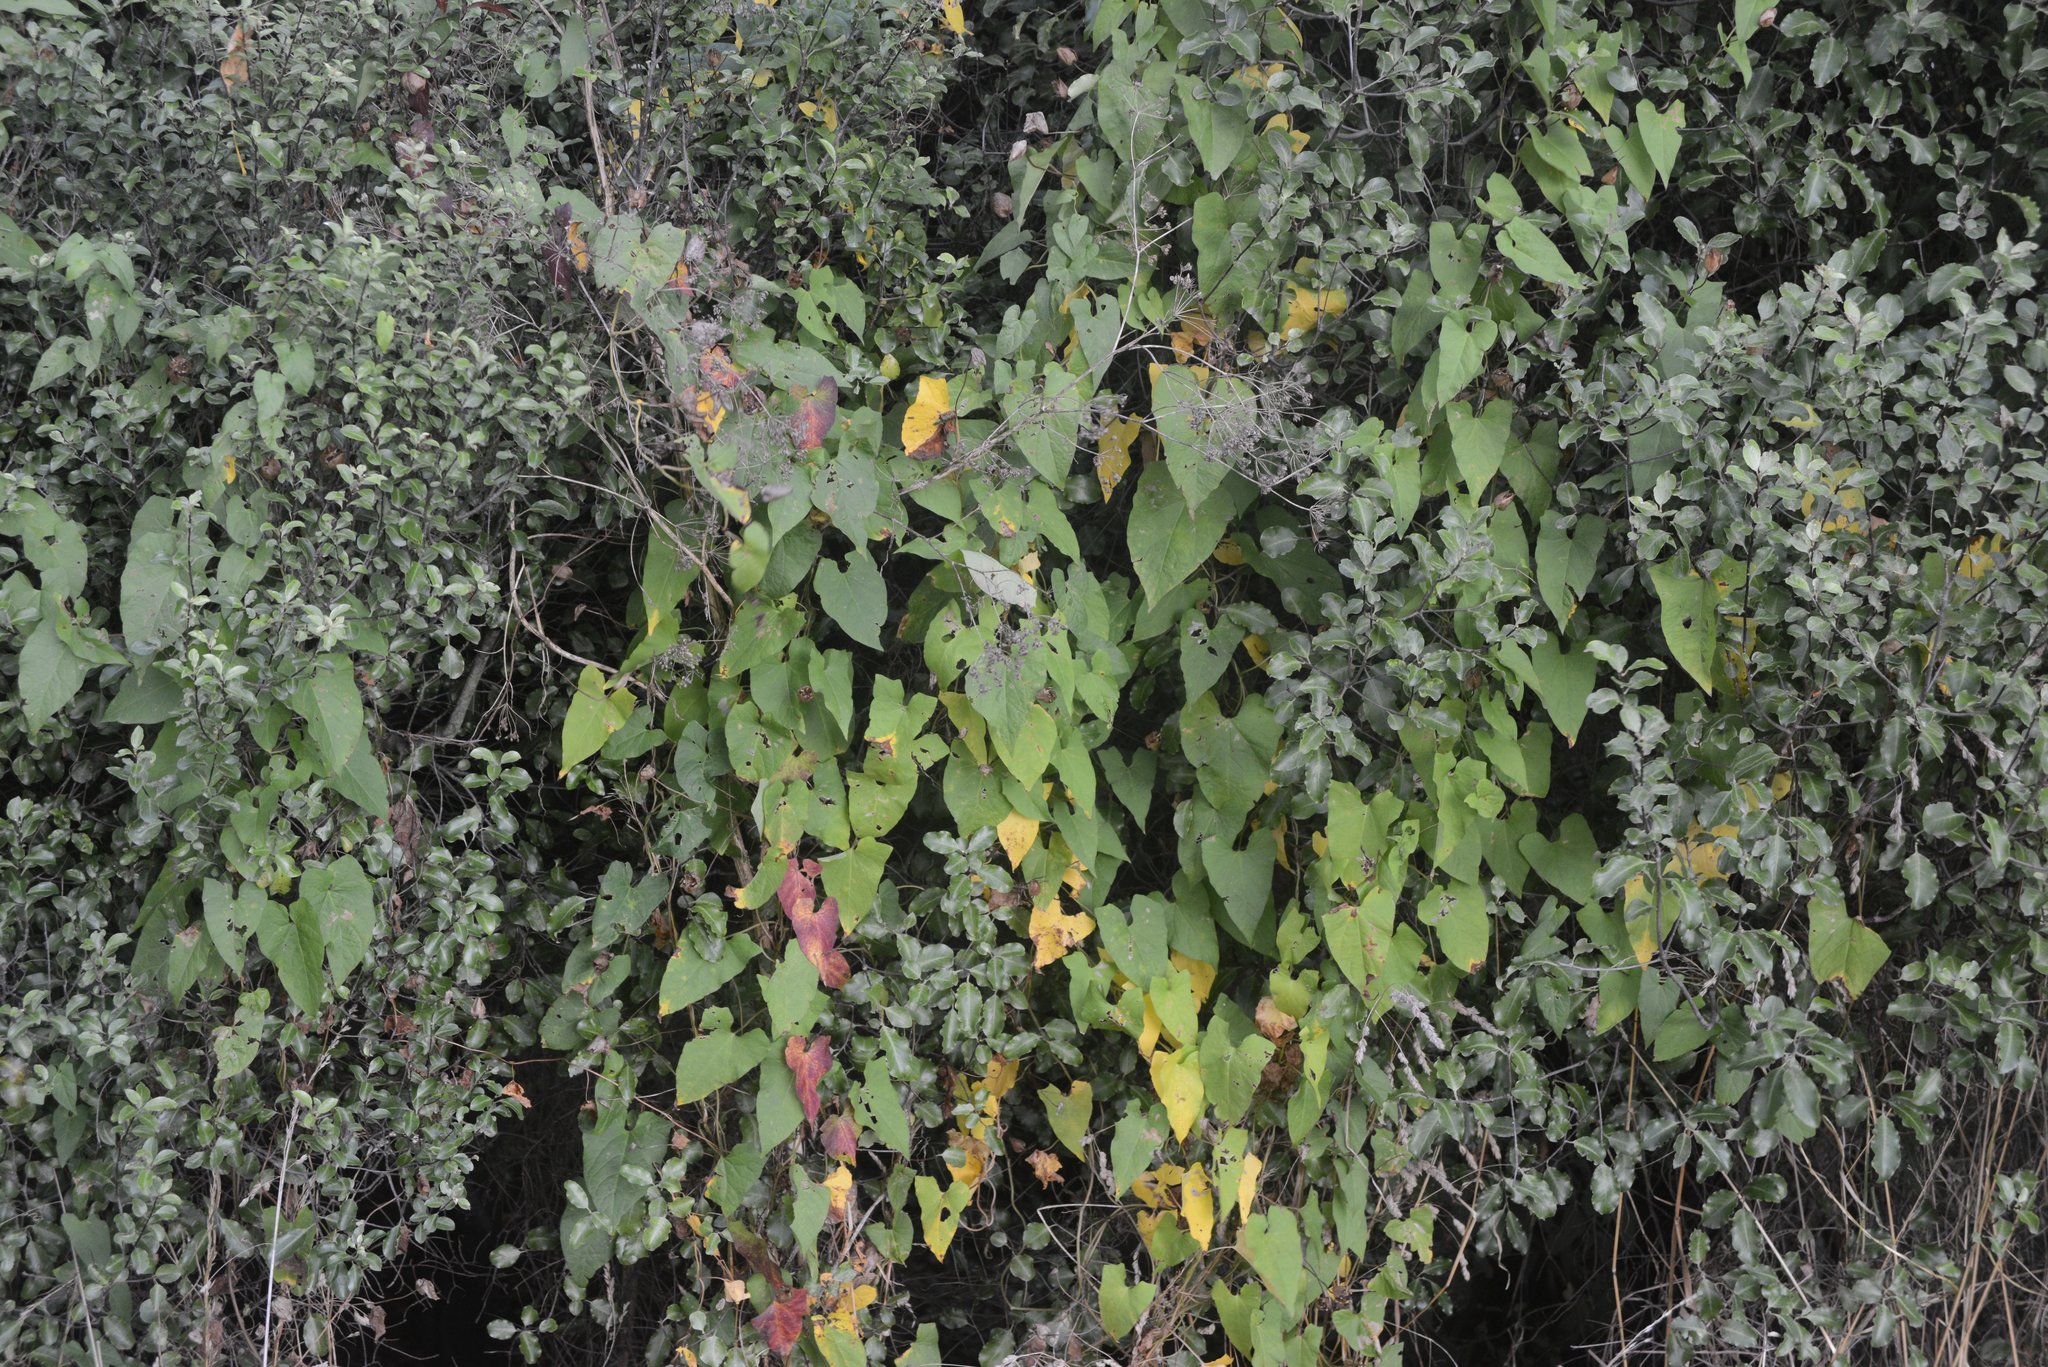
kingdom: Plantae
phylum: Tracheophyta
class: Magnoliopsida
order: Solanales
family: Convolvulaceae
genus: Calystegia
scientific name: Calystegia silvatica
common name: Large bindweed
